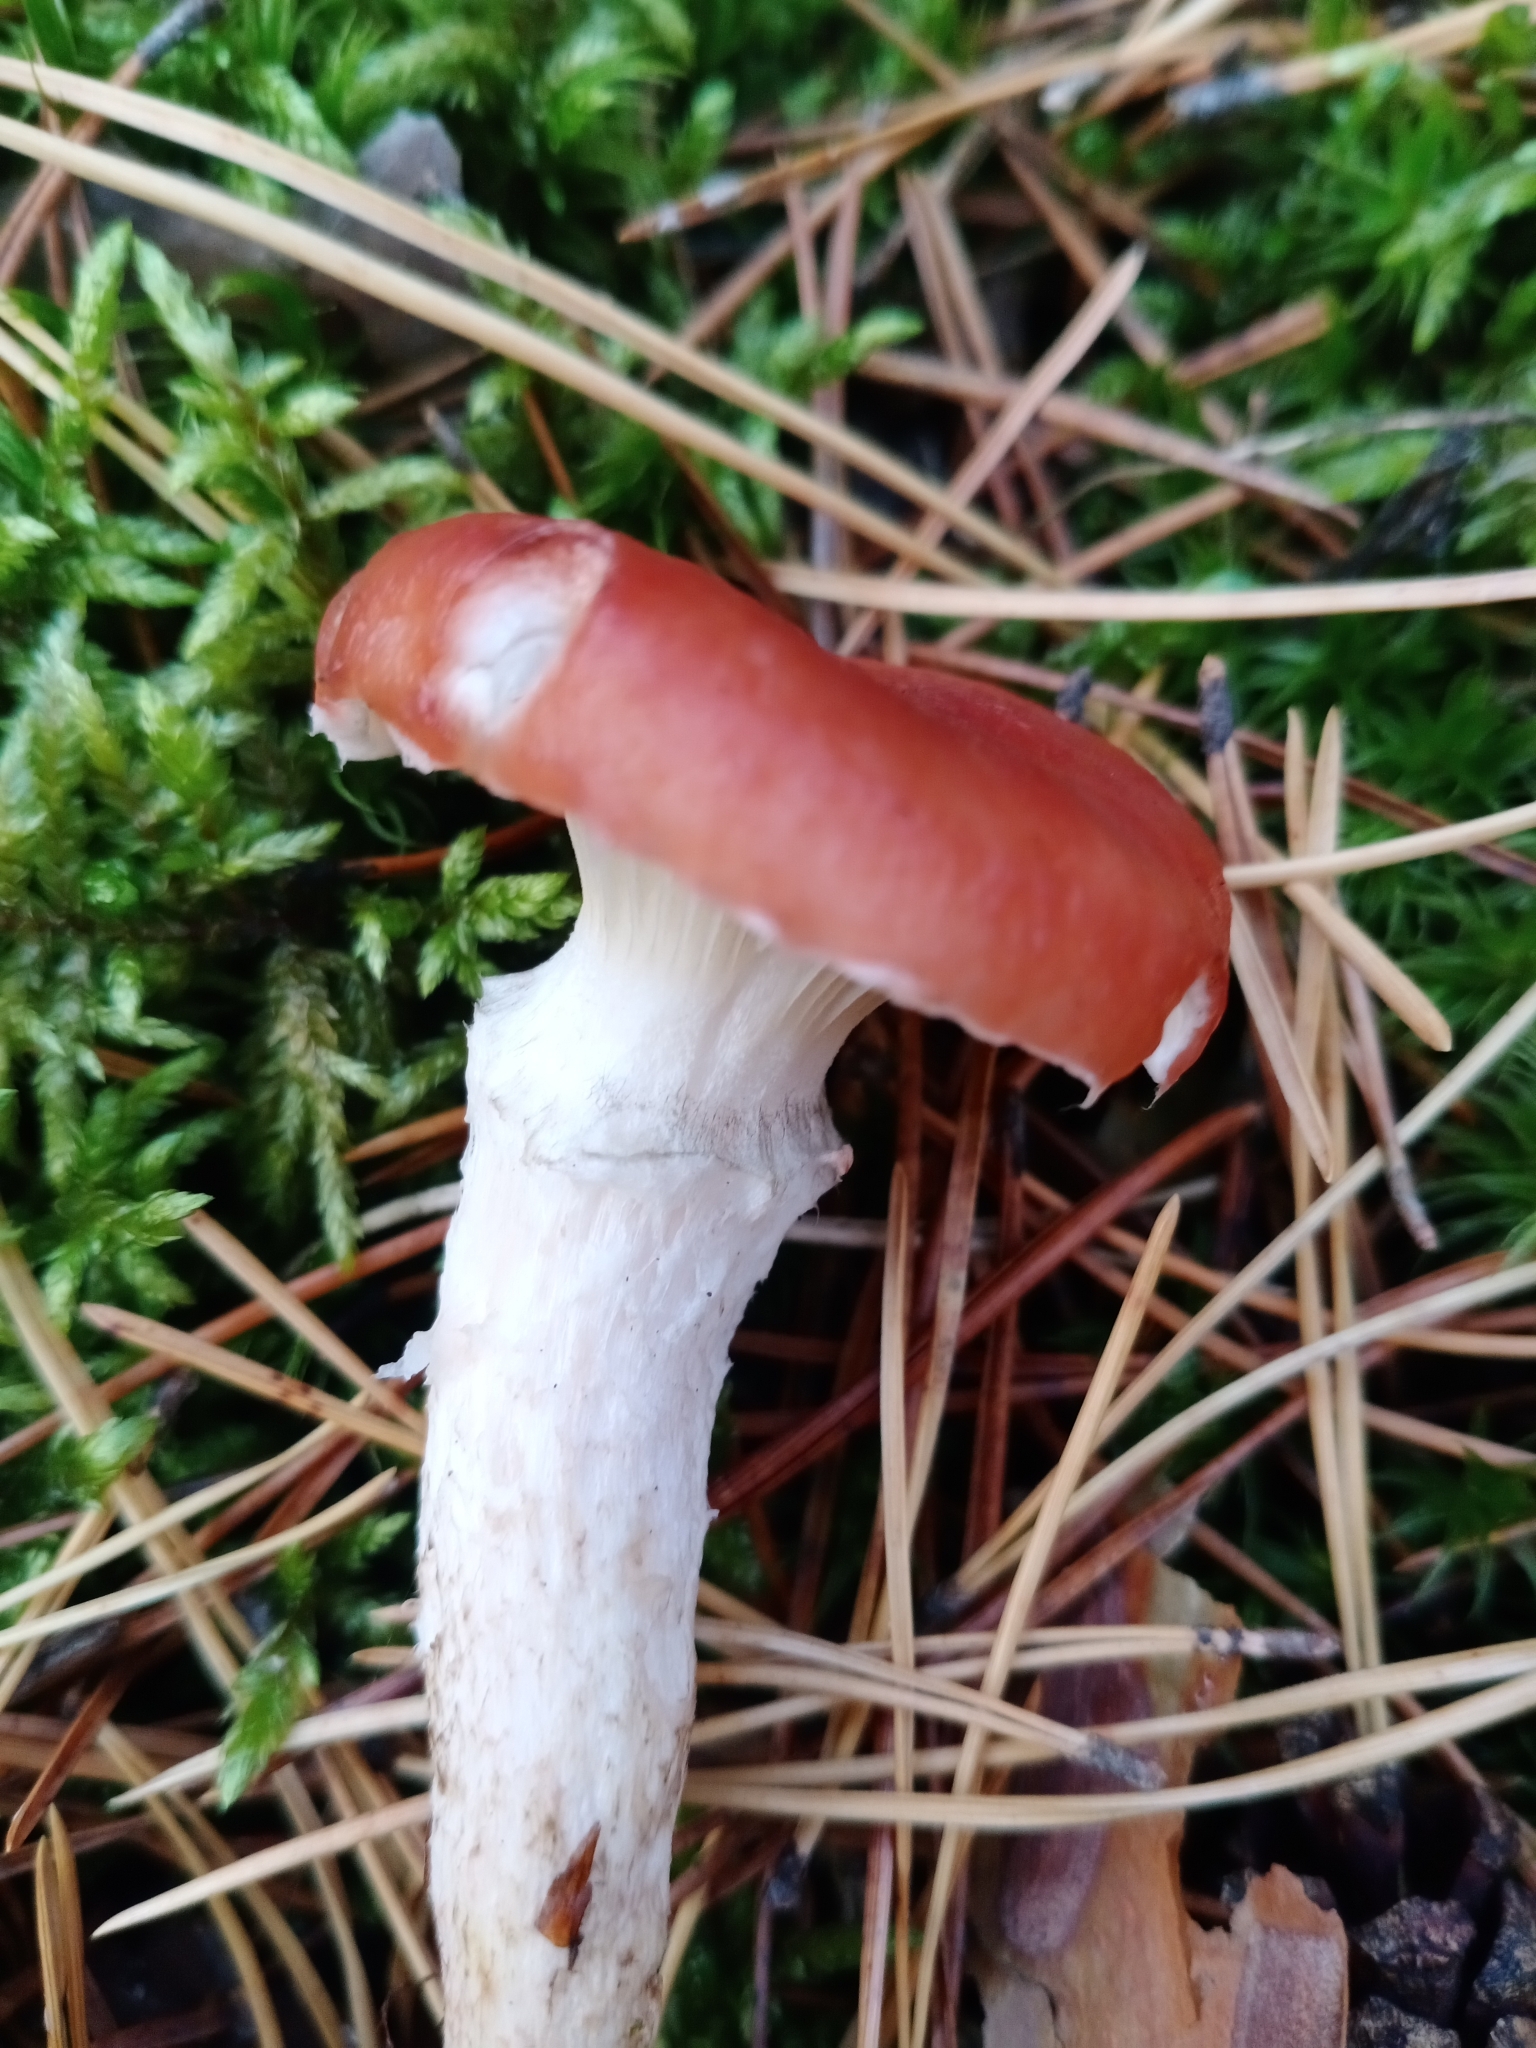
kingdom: Fungi
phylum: Basidiomycota
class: Agaricomycetes
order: Boletales
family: Gomphidiaceae
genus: Gomphidius
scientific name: Gomphidius roseus
